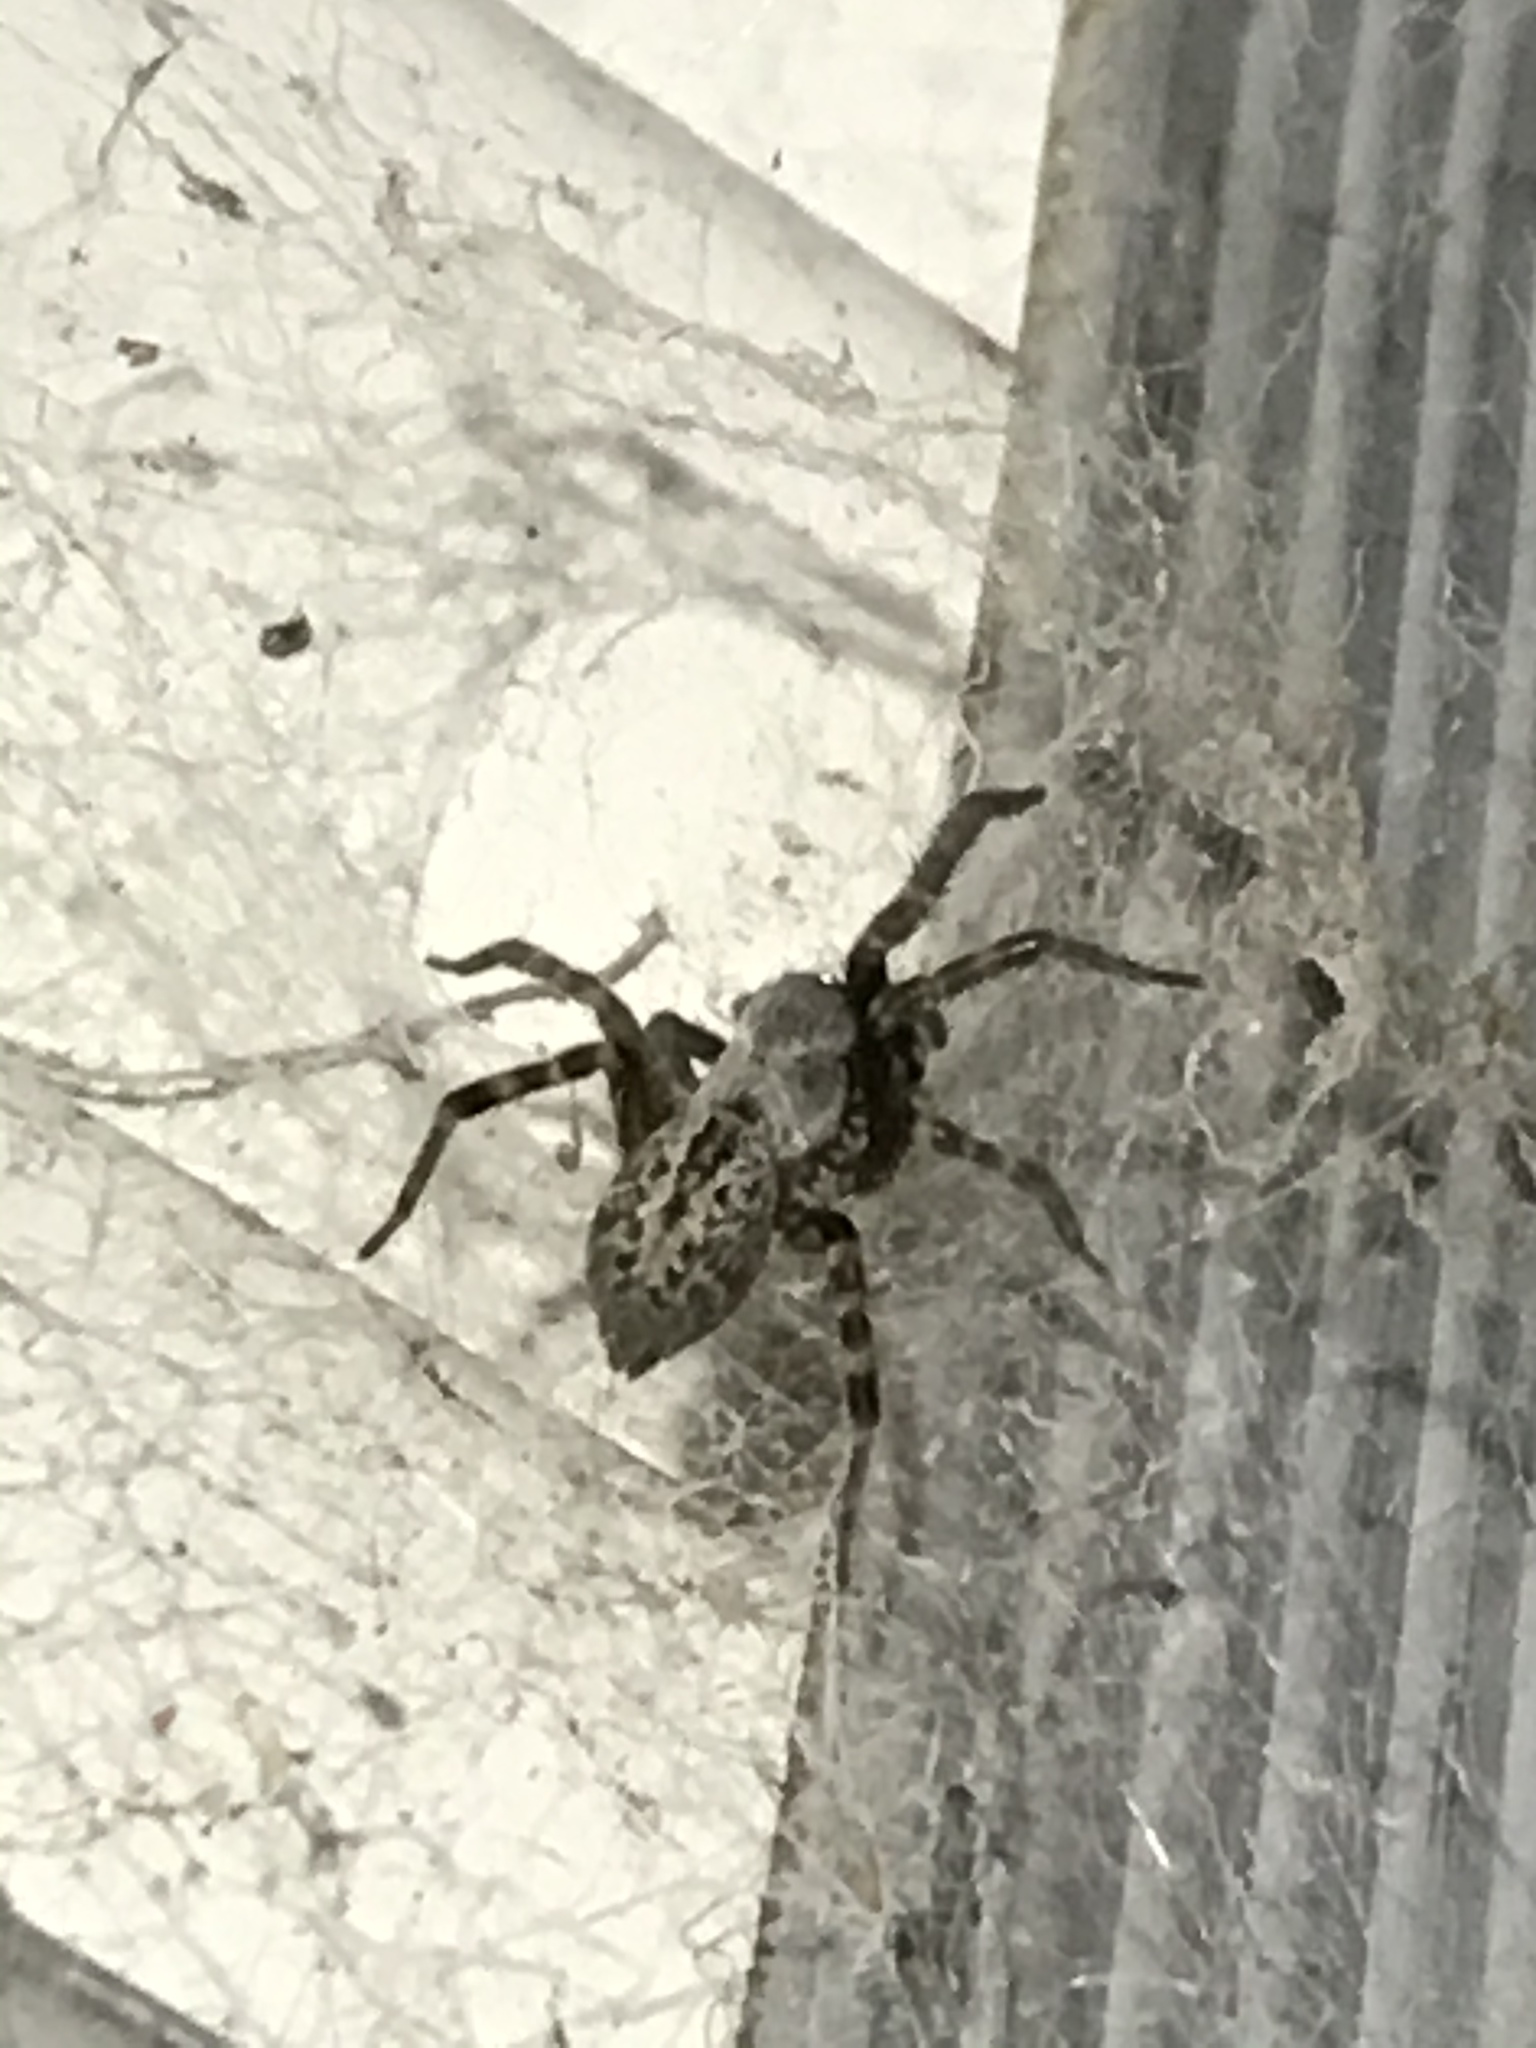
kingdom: Animalia
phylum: Arthropoda
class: Arachnida
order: Araneae
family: Desidae
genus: Badumna
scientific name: Badumna longinqua
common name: Gray house spider
